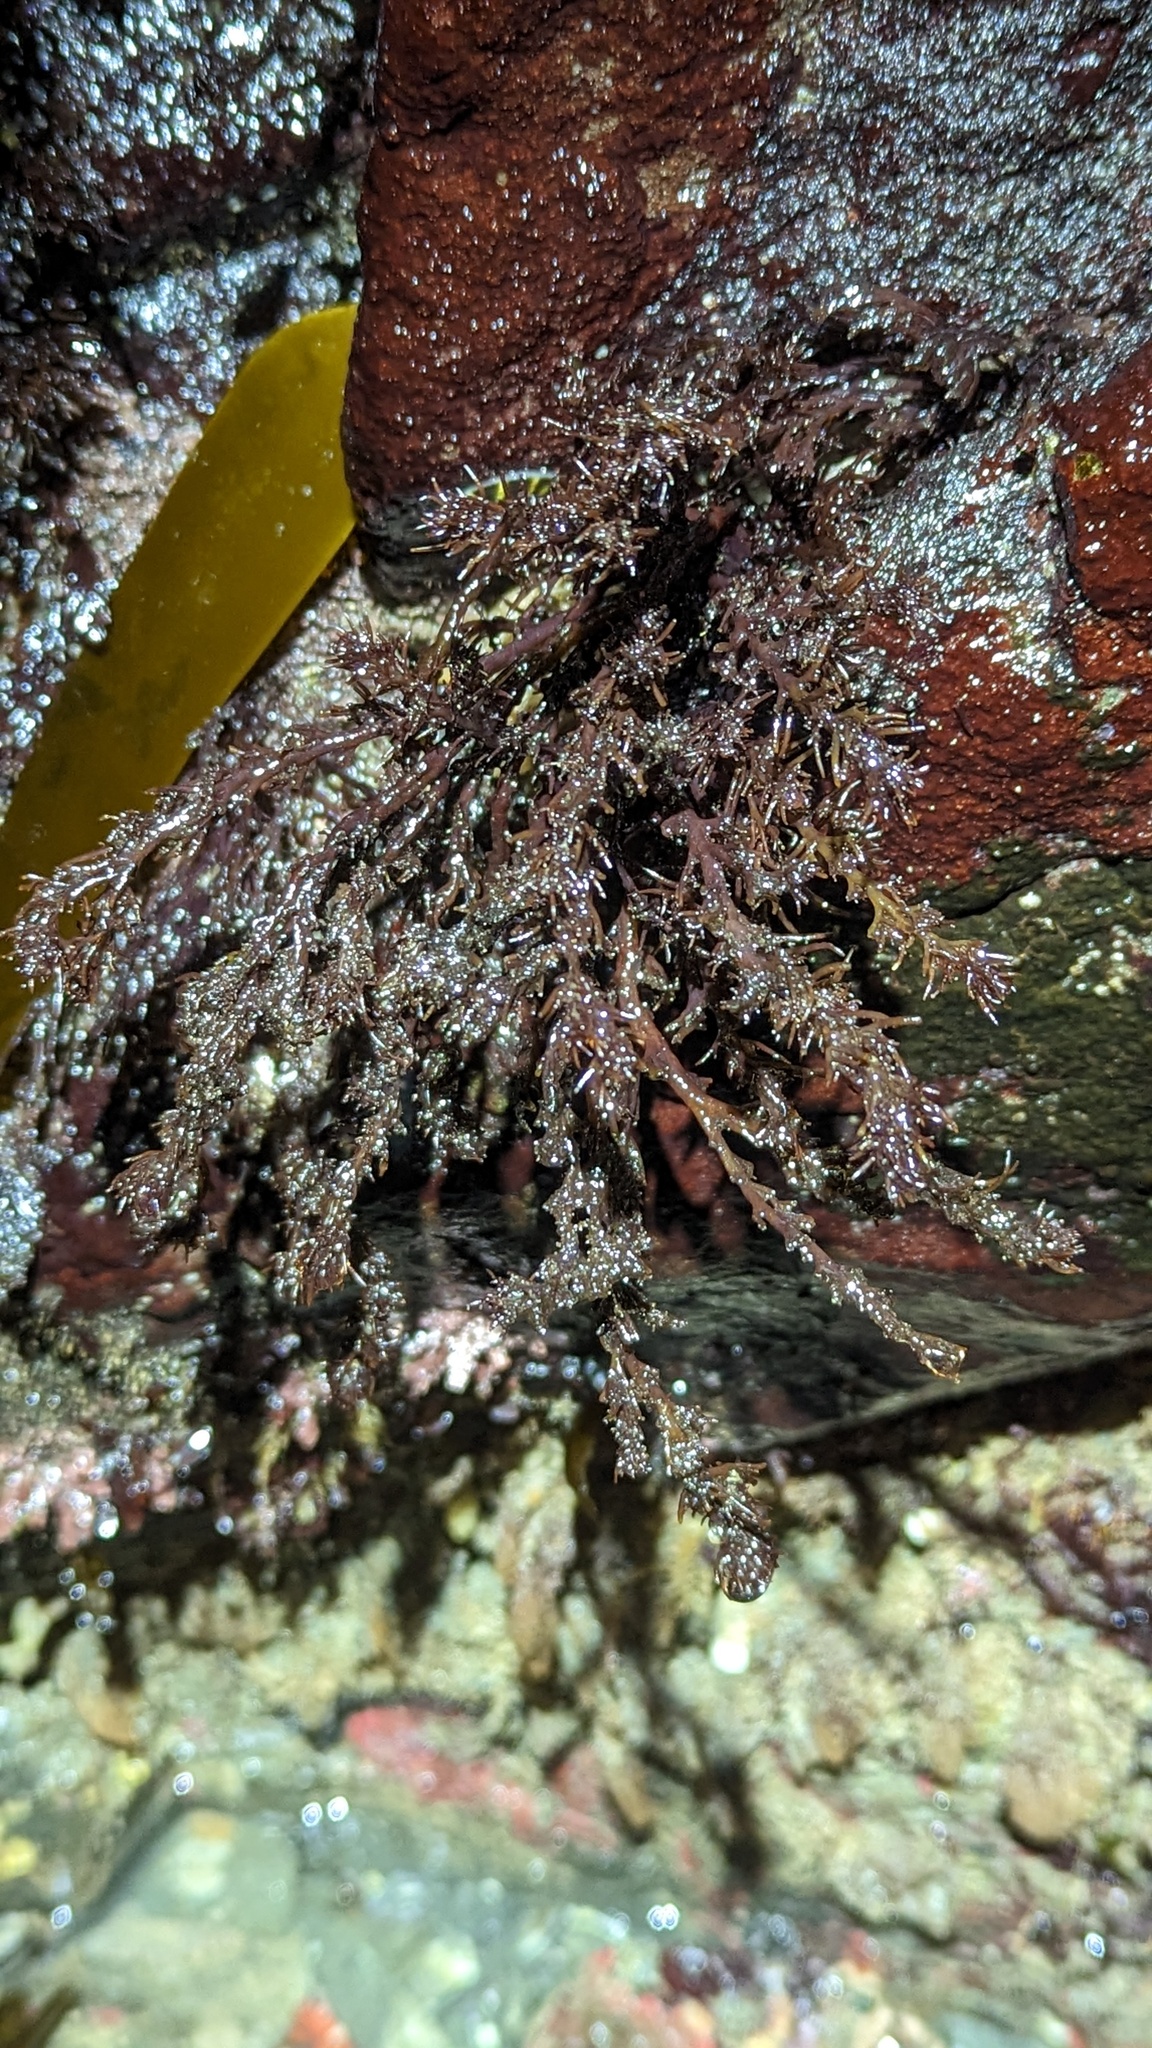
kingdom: Plantae
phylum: Rhodophyta
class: Florideophyceae
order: Ceramiales
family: Rhodomelaceae
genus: Neorhodomela
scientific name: Neorhodomela larix
